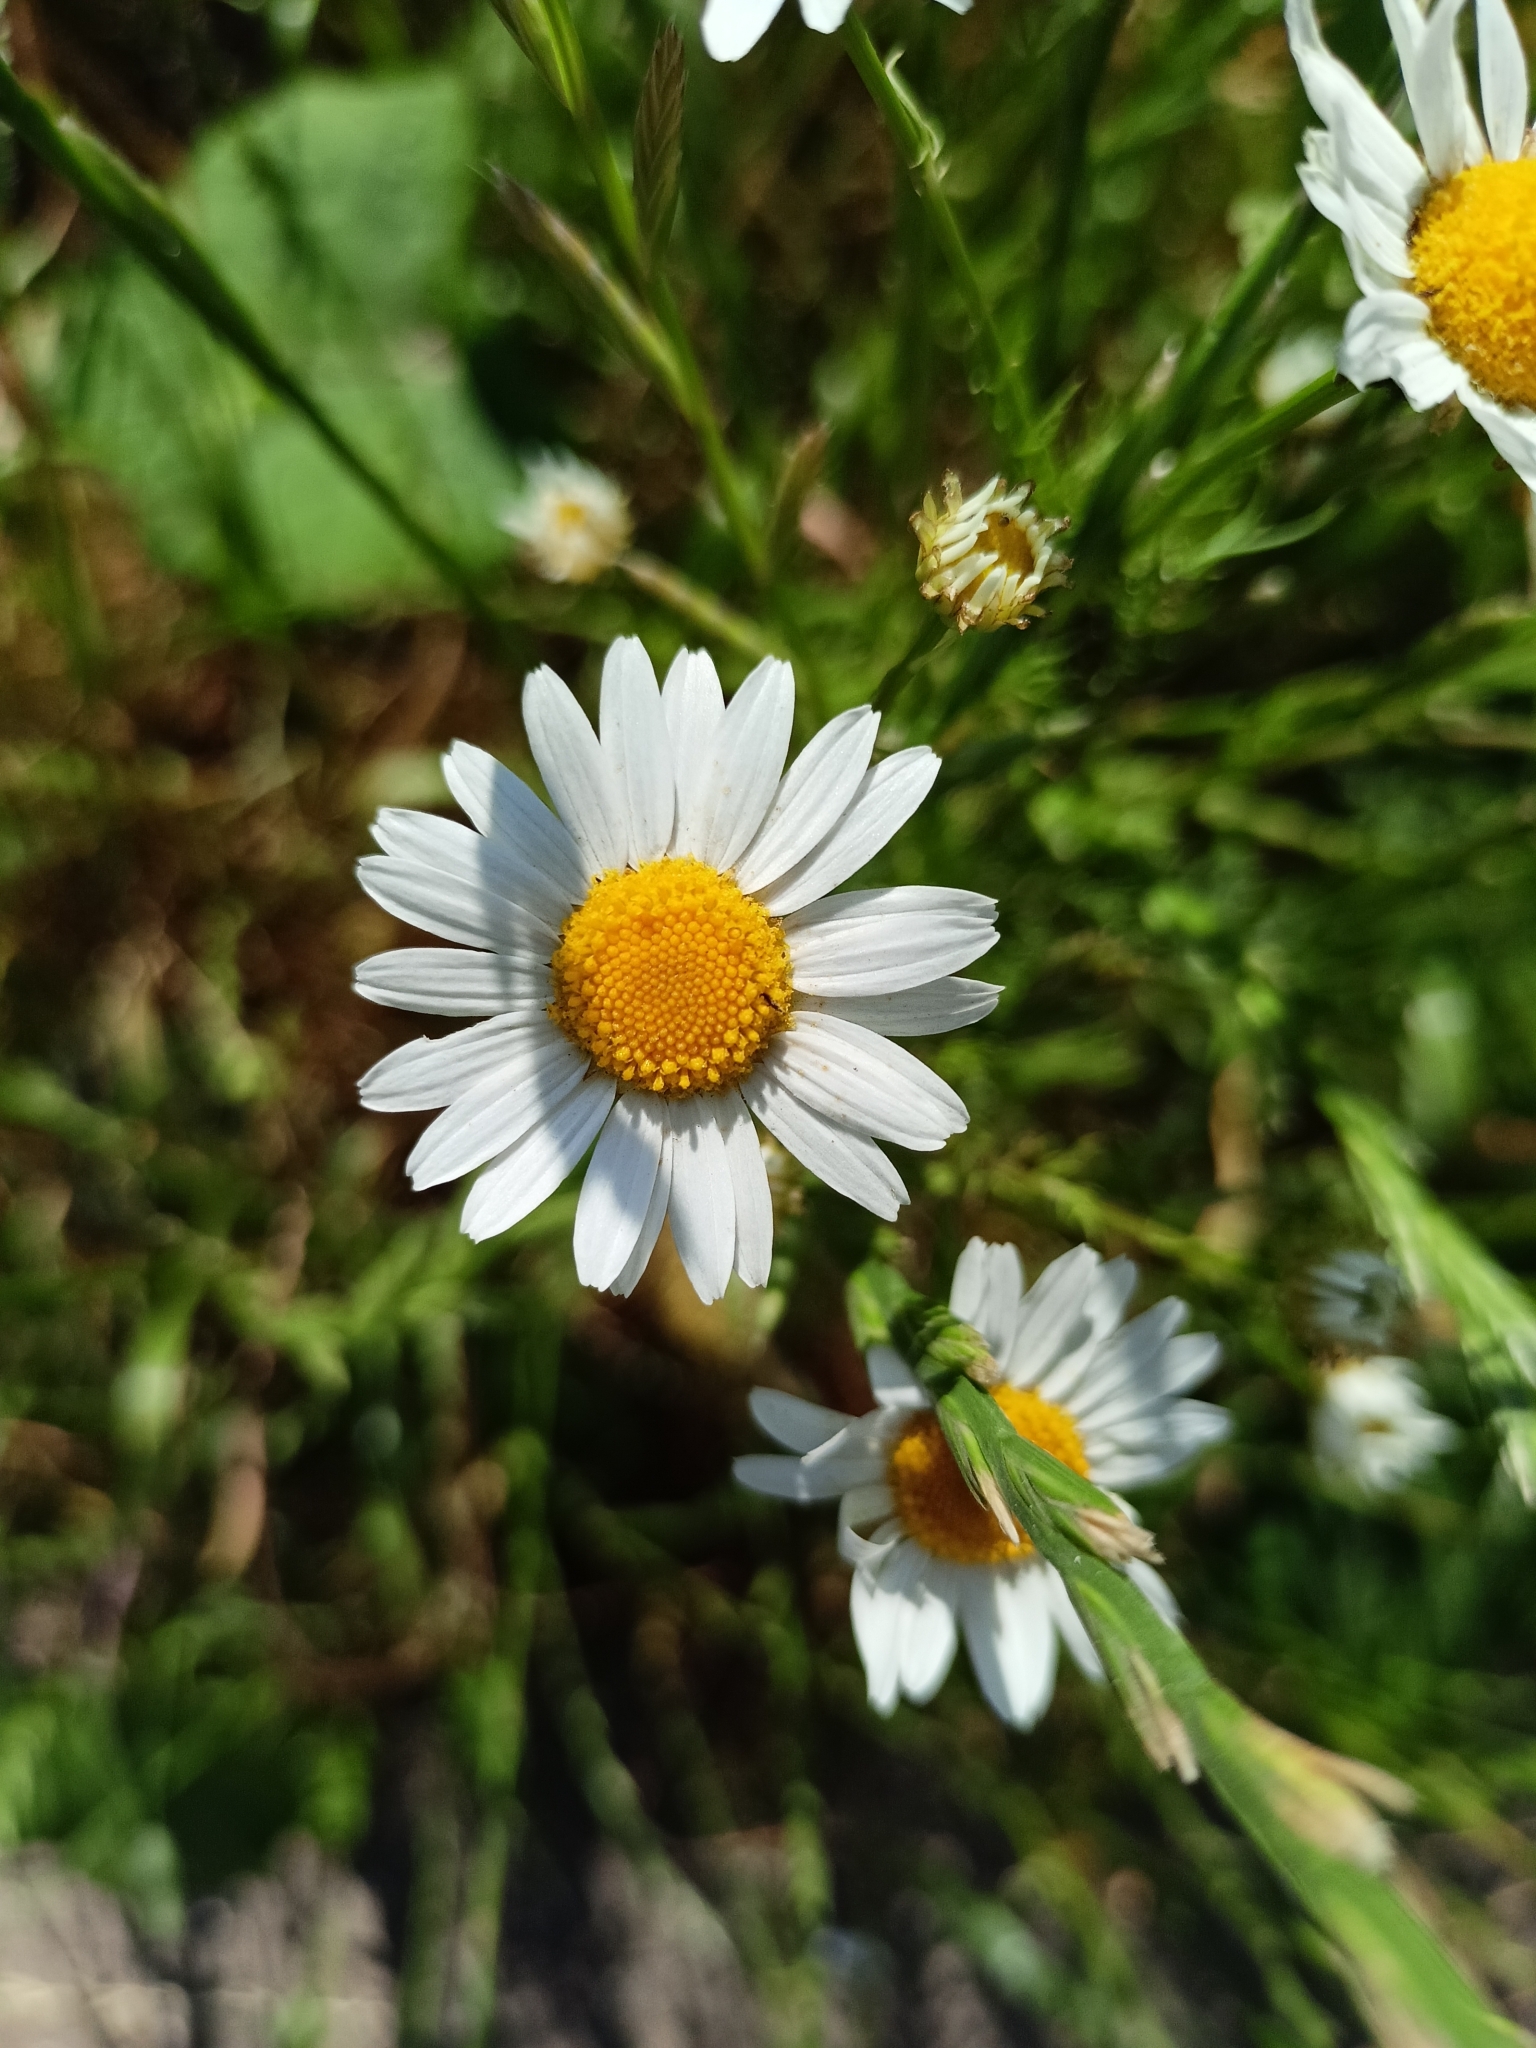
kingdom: Plantae
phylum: Tracheophyta
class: Magnoliopsida
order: Asterales
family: Asteraceae
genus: Tripleurospermum
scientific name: Tripleurospermum inodorum
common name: Scentless mayweed
